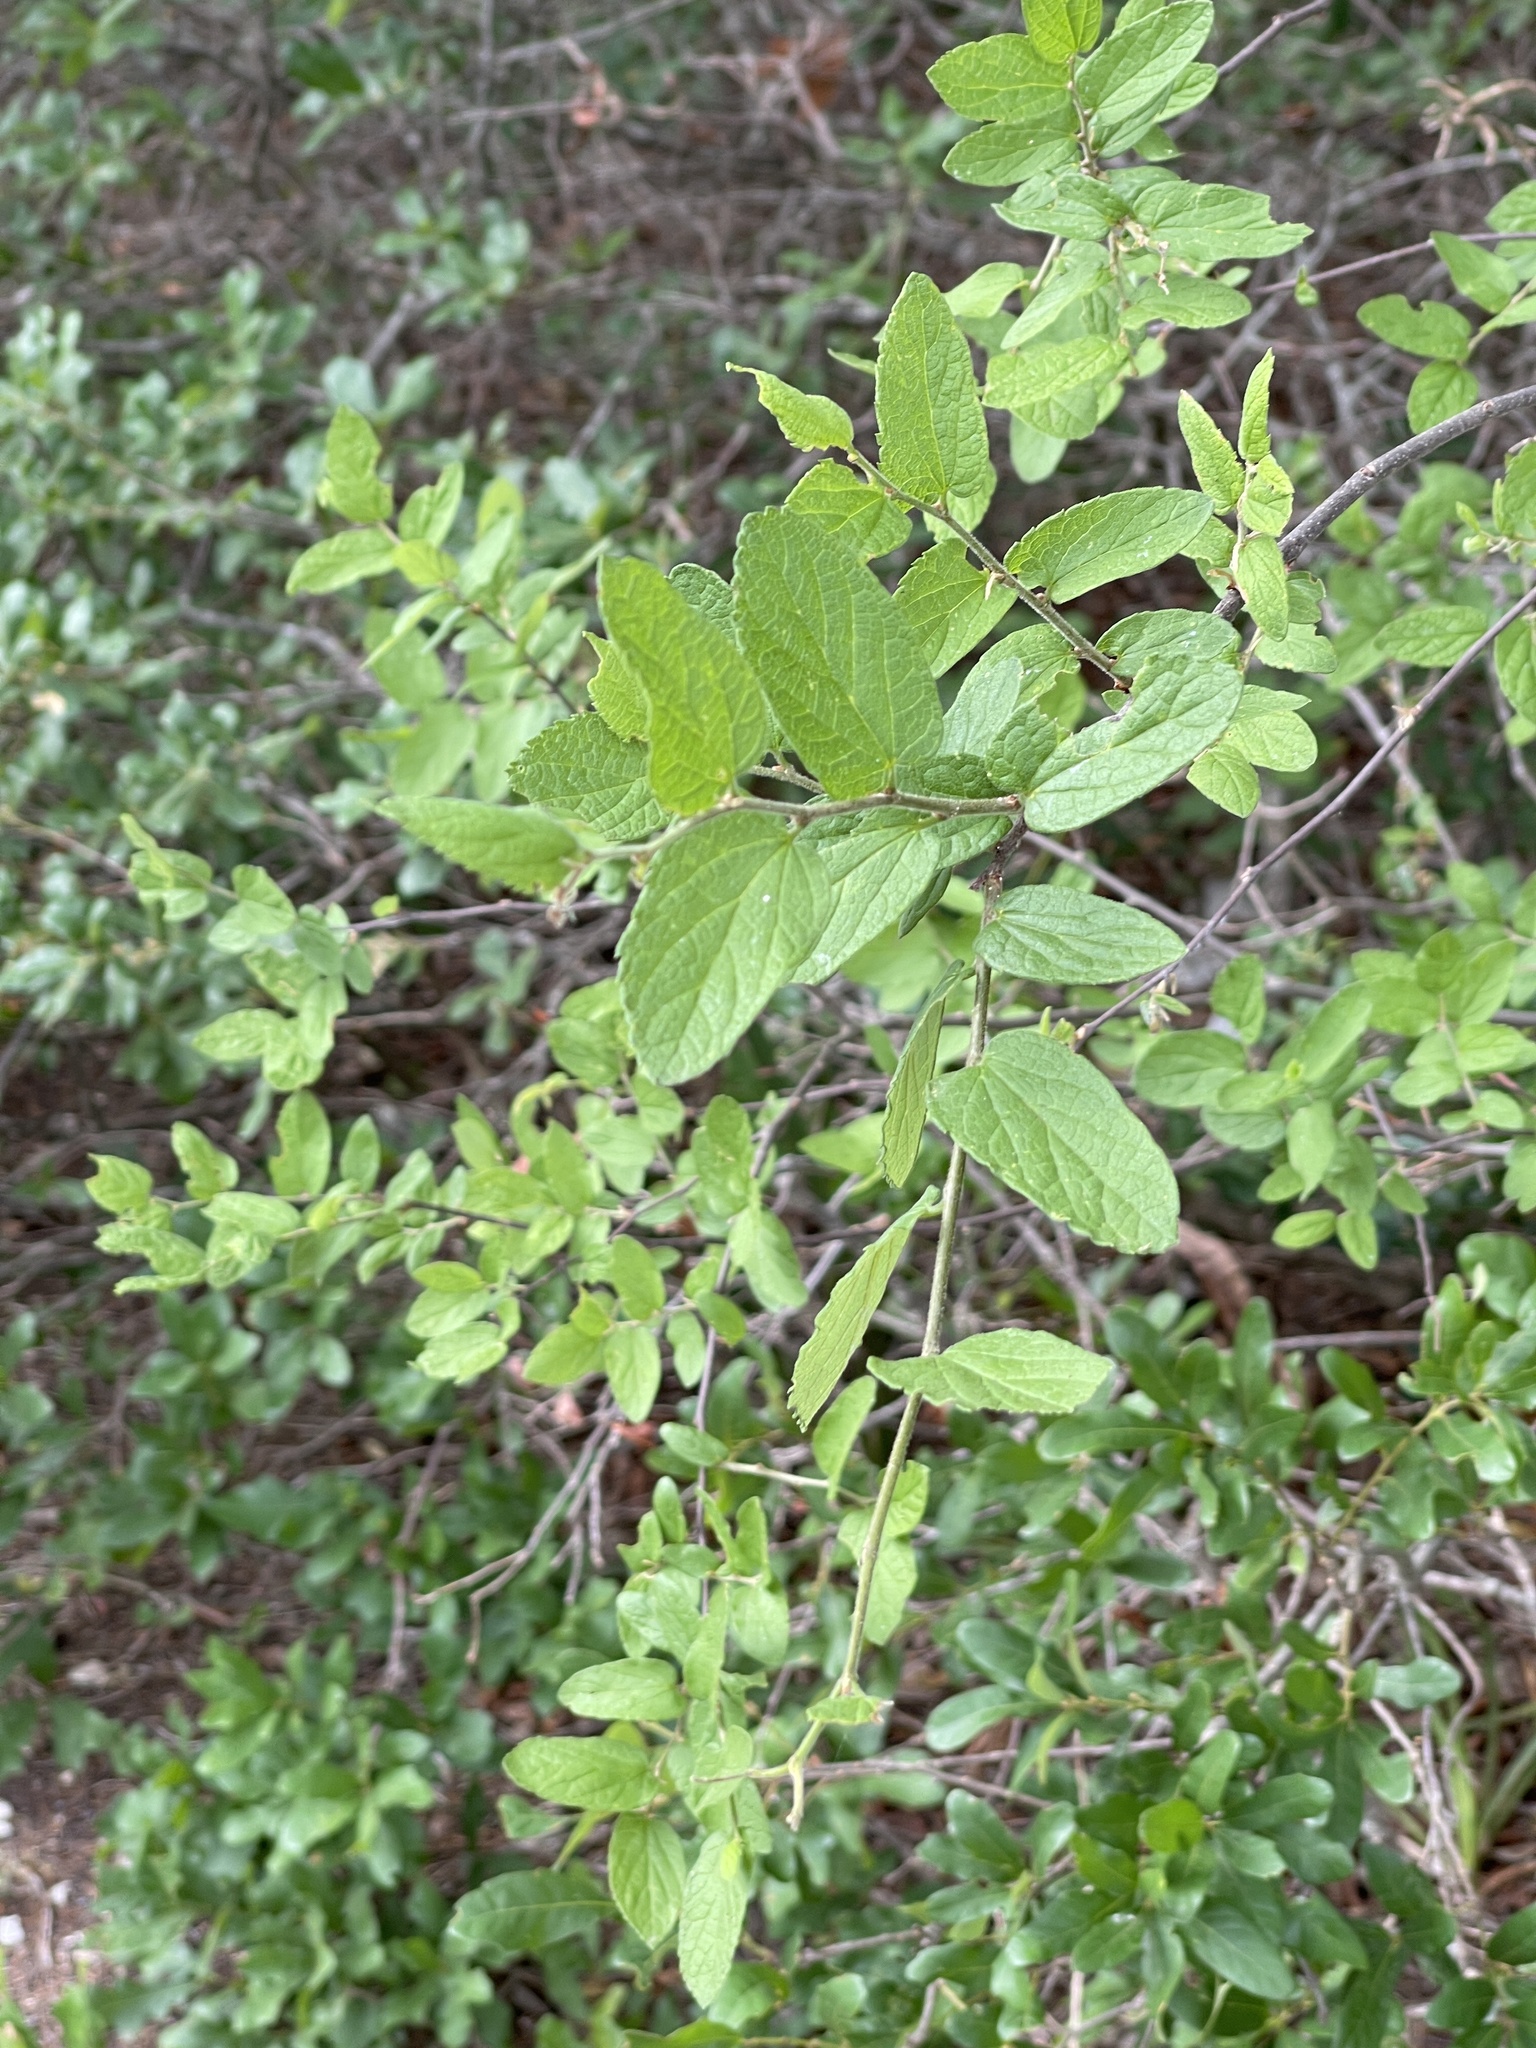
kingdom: Plantae
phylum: Tracheophyta
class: Magnoliopsida
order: Rosales
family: Cannabaceae
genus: Celtis
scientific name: Celtis reticulata
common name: Netleaf hackberry
